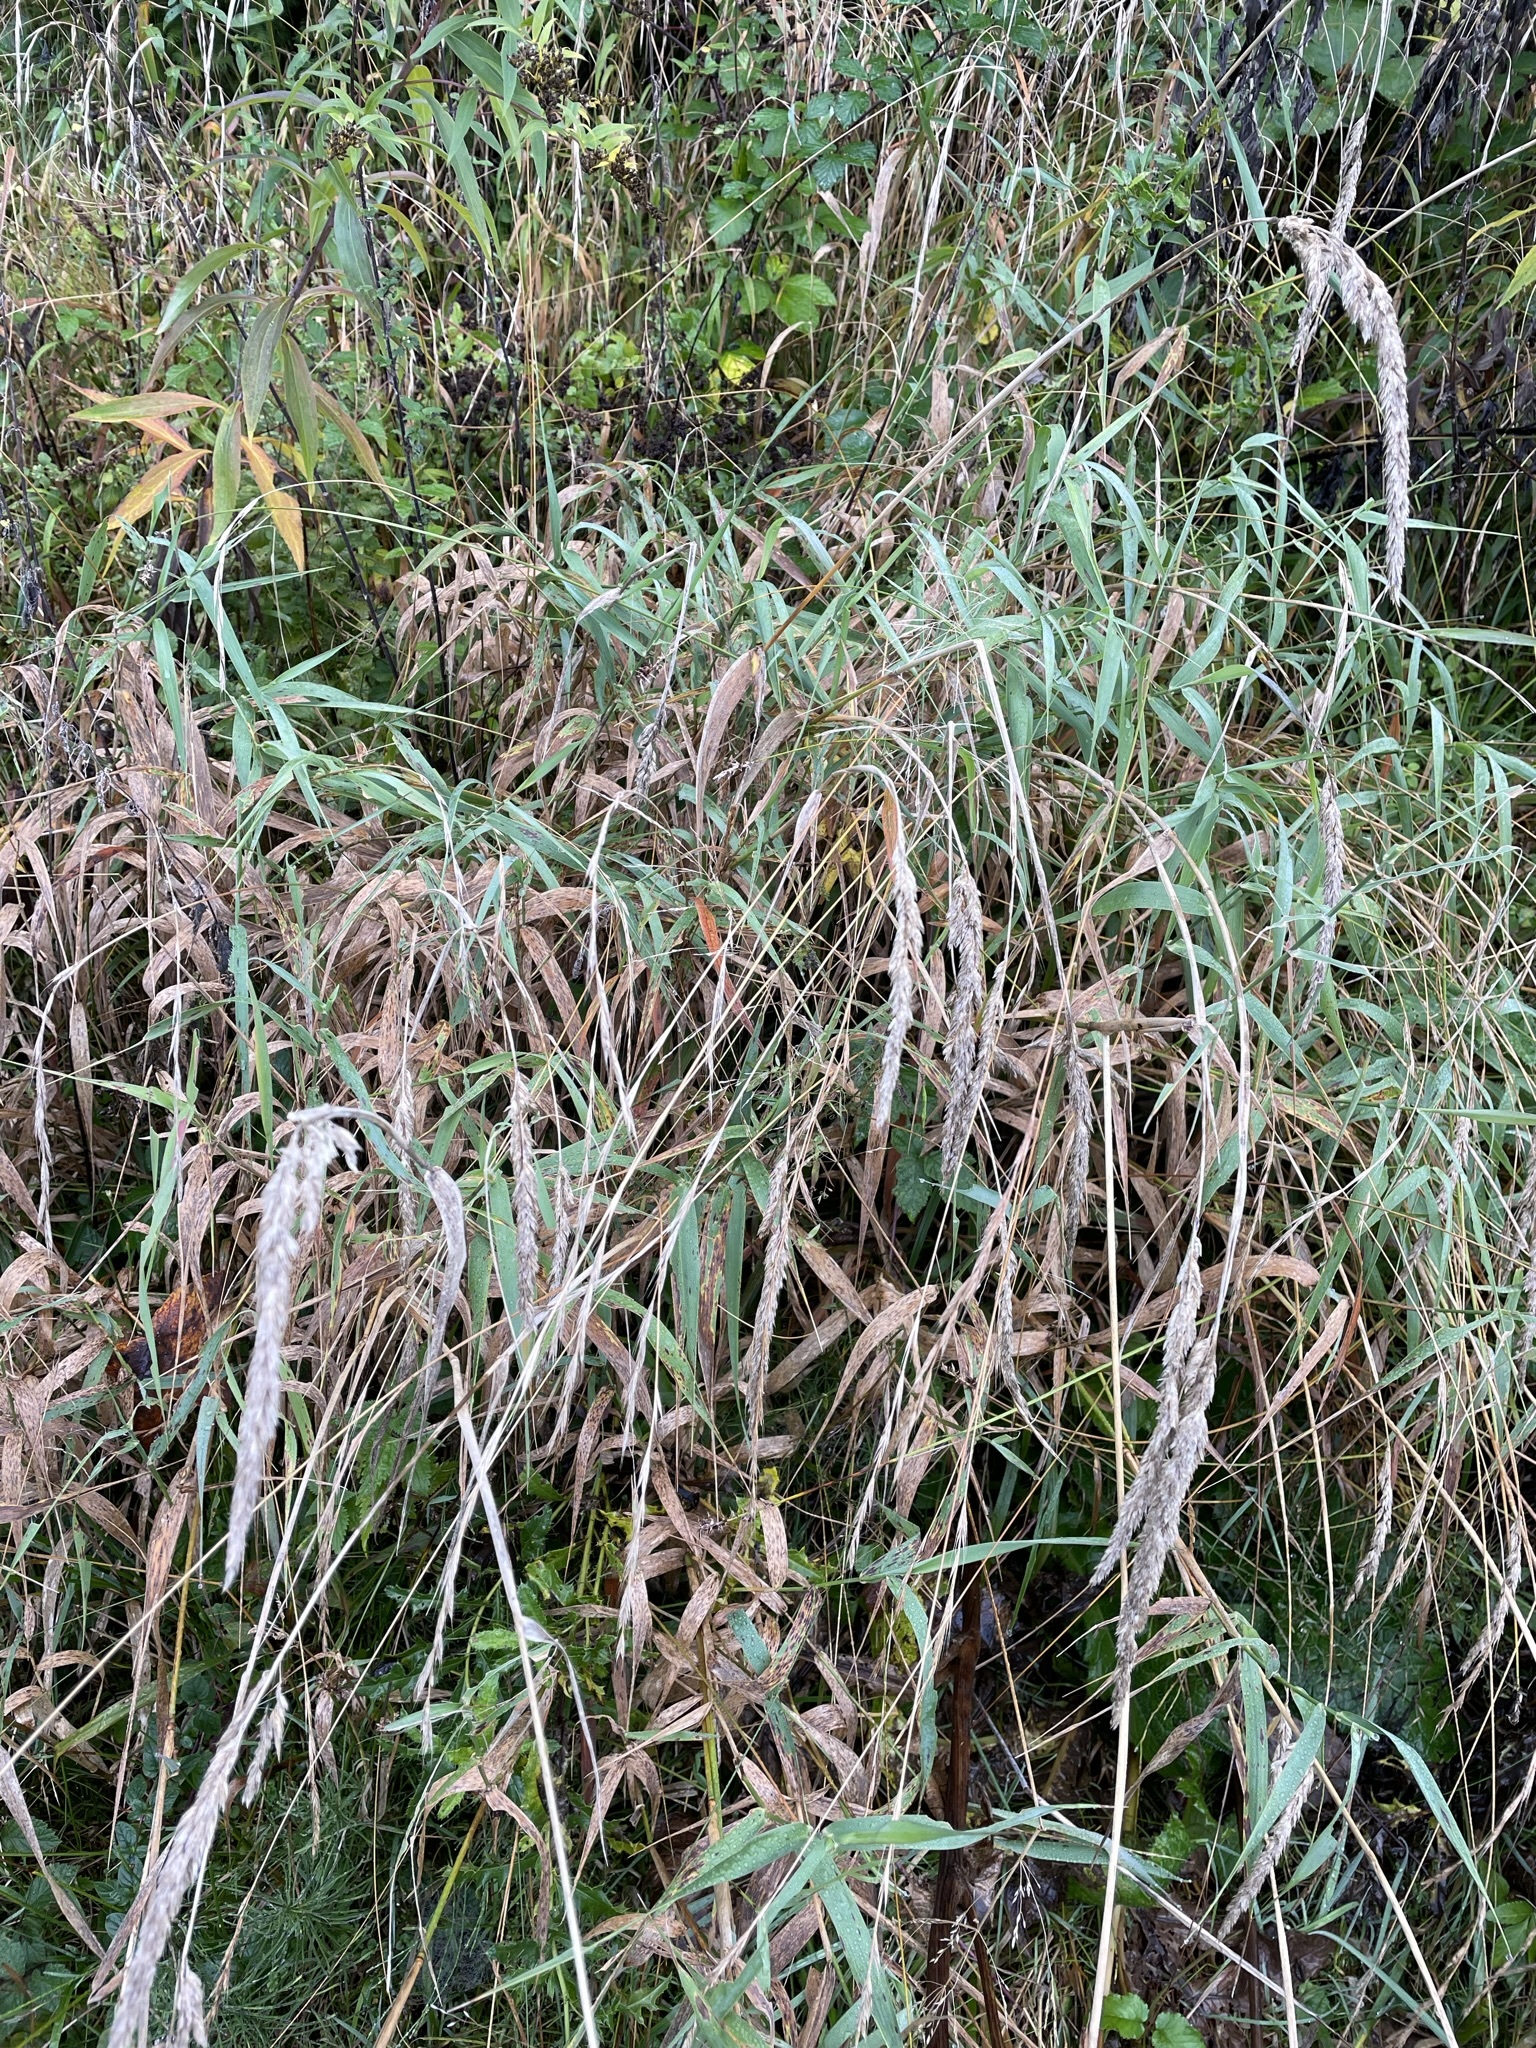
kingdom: Plantae
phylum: Tracheophyta
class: Liliopsida
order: Poales
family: Poaceae
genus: Phalaris
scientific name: Phalaris arundinacea
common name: Reed canary-grass
